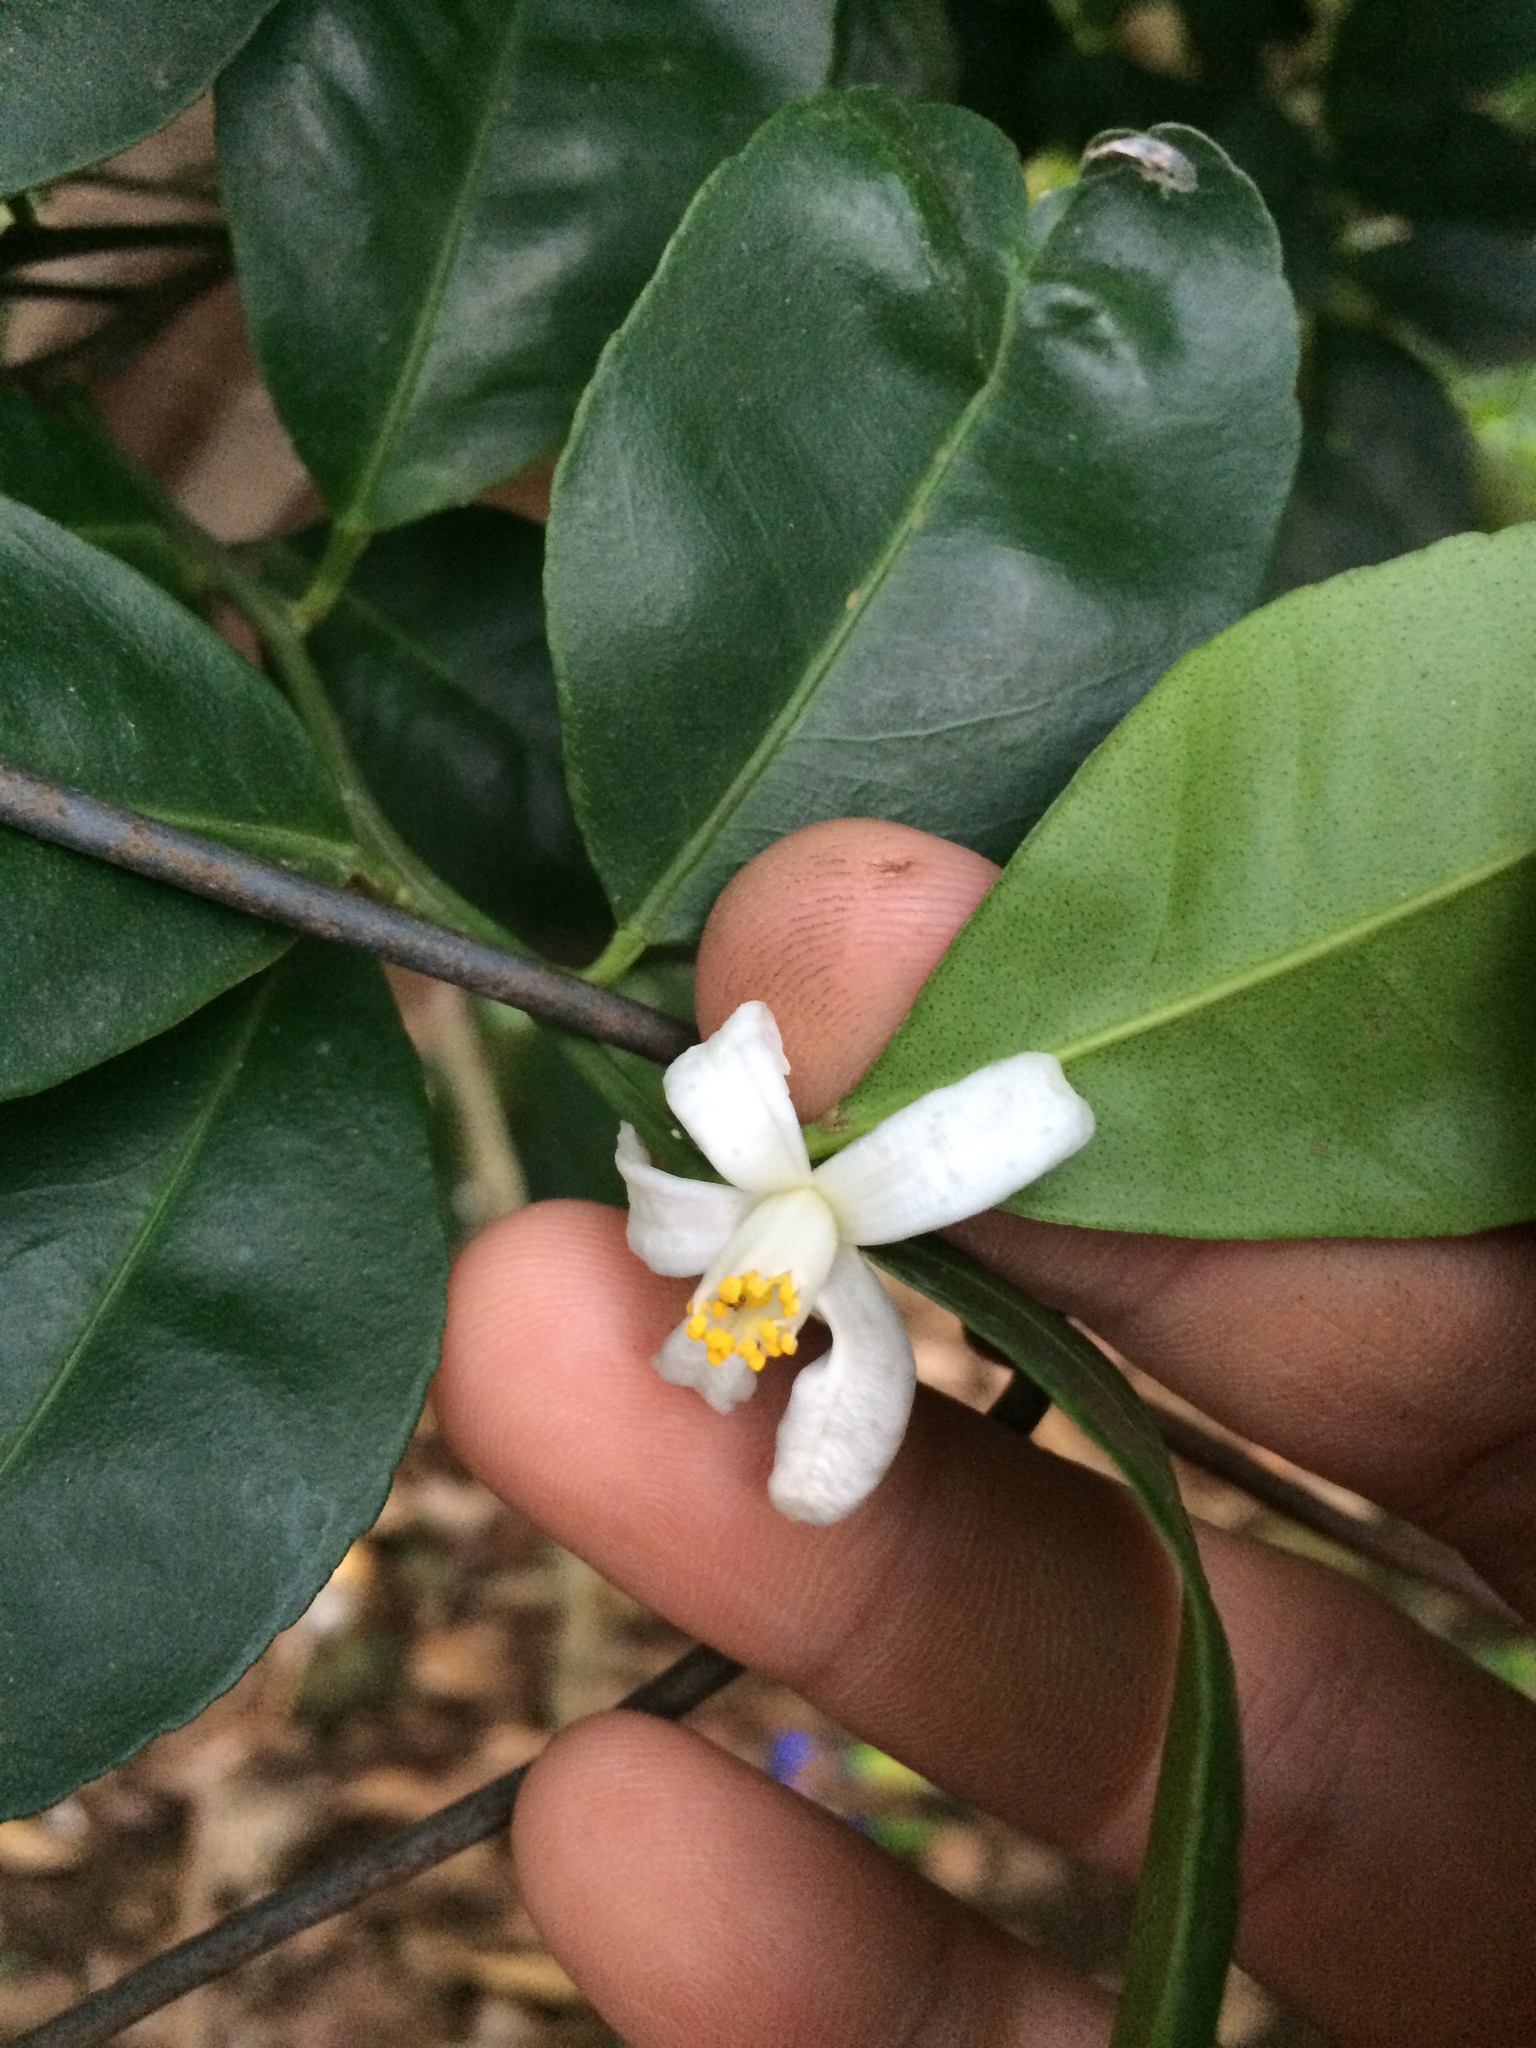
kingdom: Plantae
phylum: Tracheophyta
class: Magnoliopsida
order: Sapindales
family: Rutaceae
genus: Citrus
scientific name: Citrus microcarpa
